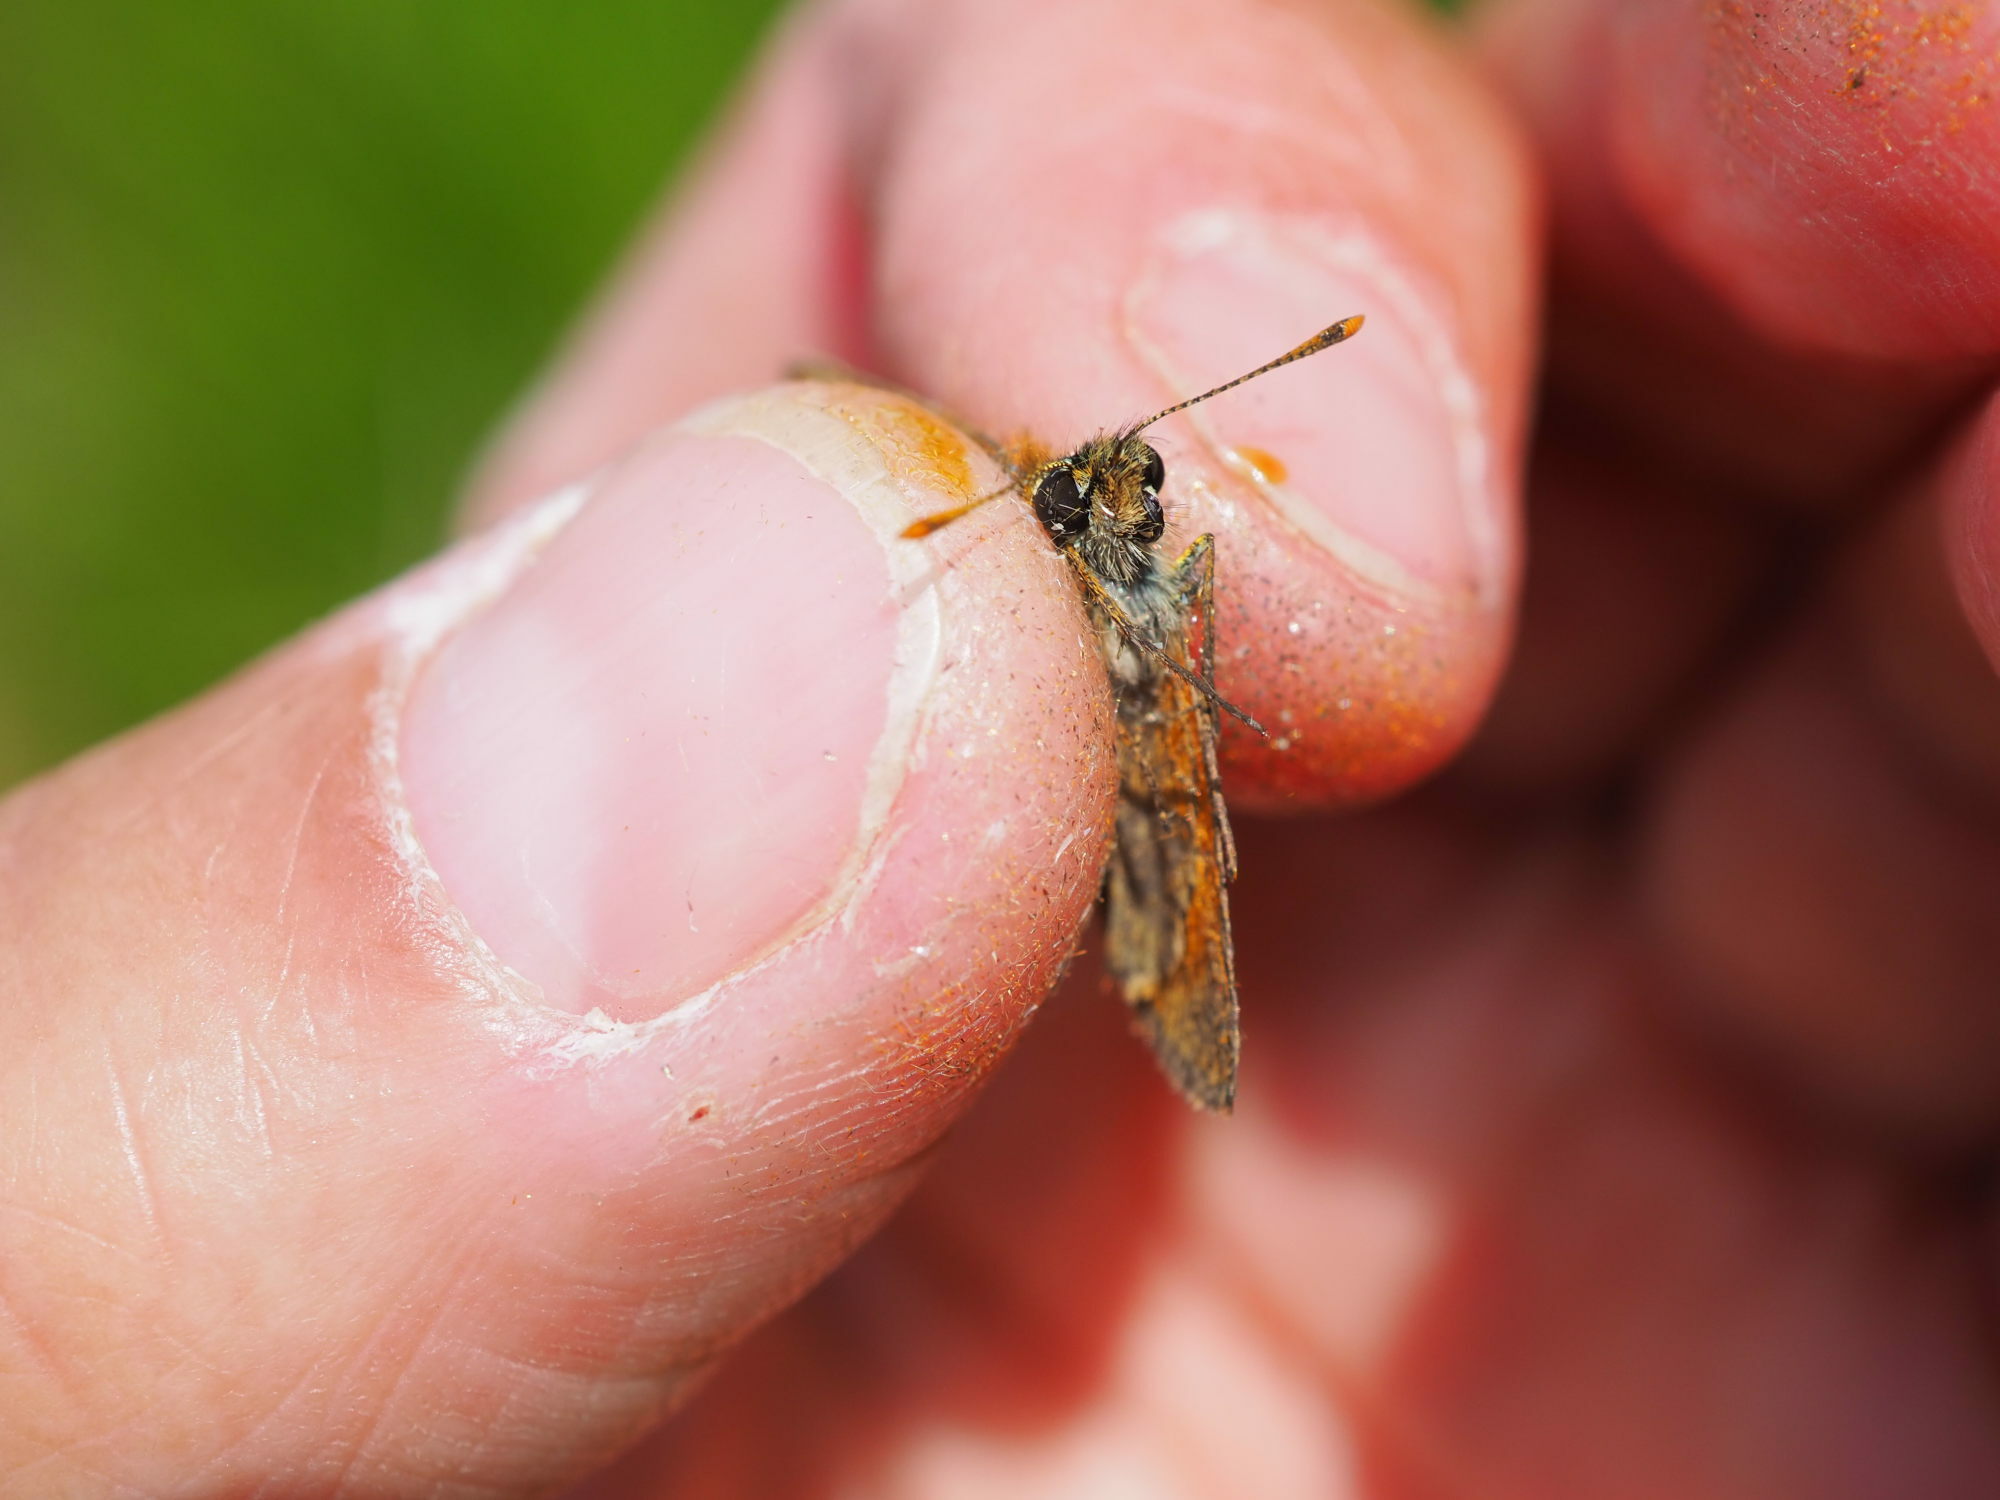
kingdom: Animalia
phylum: Arthropoda
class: Insecta
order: Lepidoptera
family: Hesperiidae
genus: Thymelicus
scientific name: Thymelicus sylvestris
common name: Small skipper
